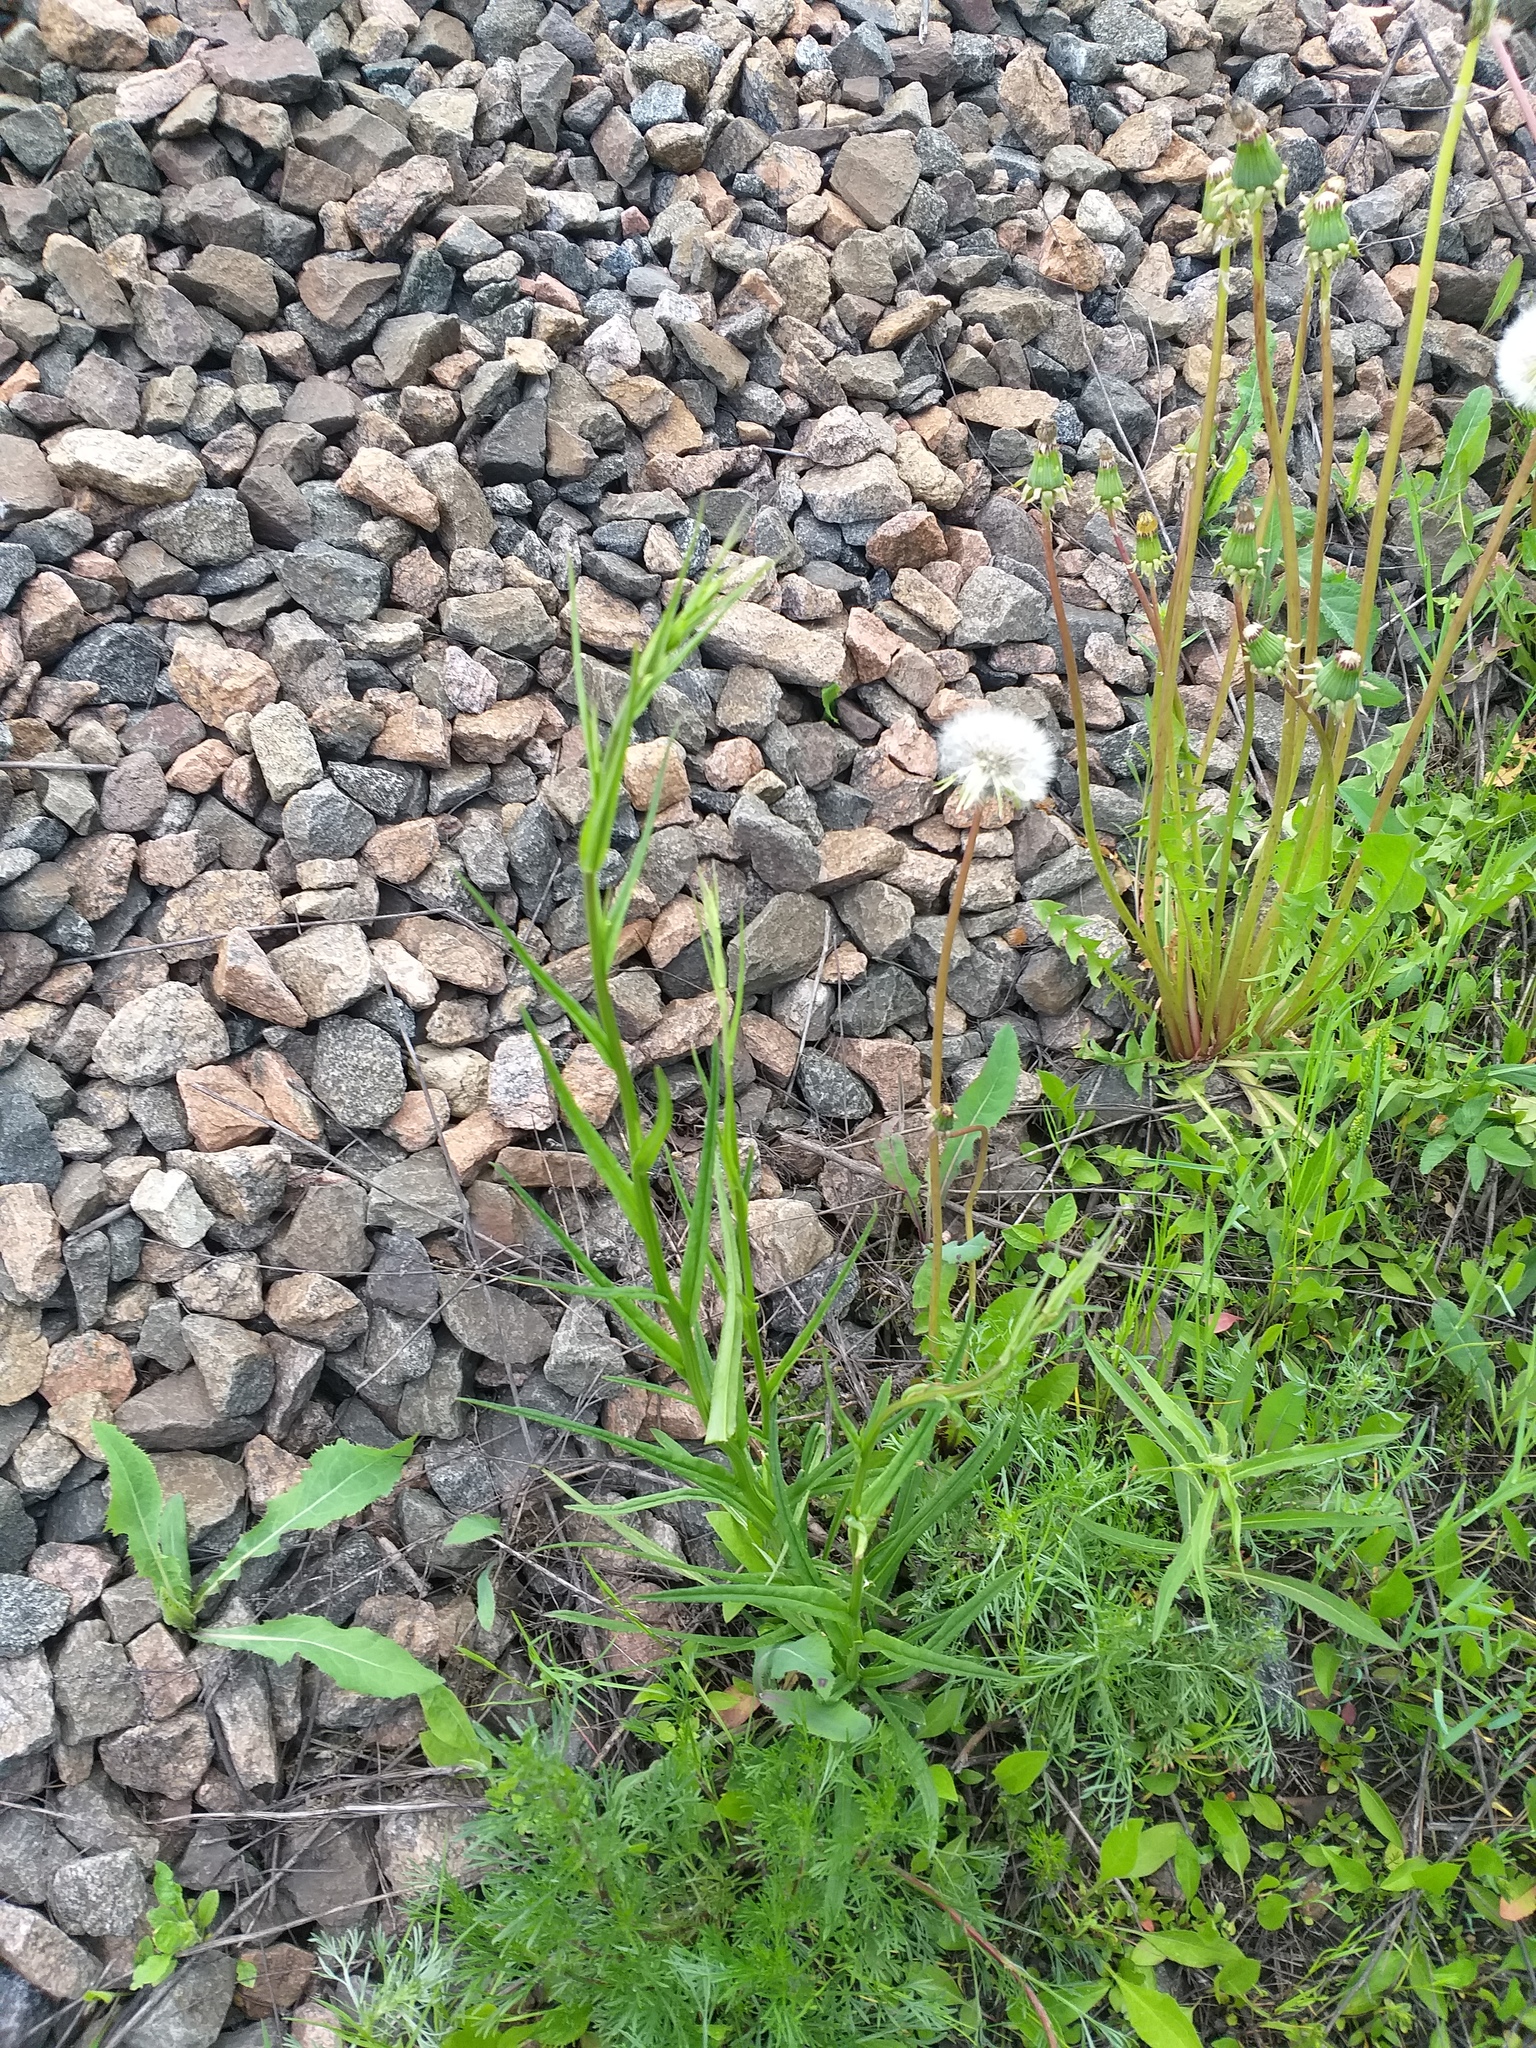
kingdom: Plantae
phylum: Tracheophyta
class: Magnoliopsida
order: Asterales
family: Campanulaceae
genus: Campanula
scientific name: Campanula persicifolia
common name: Peach-leaved bellflower
